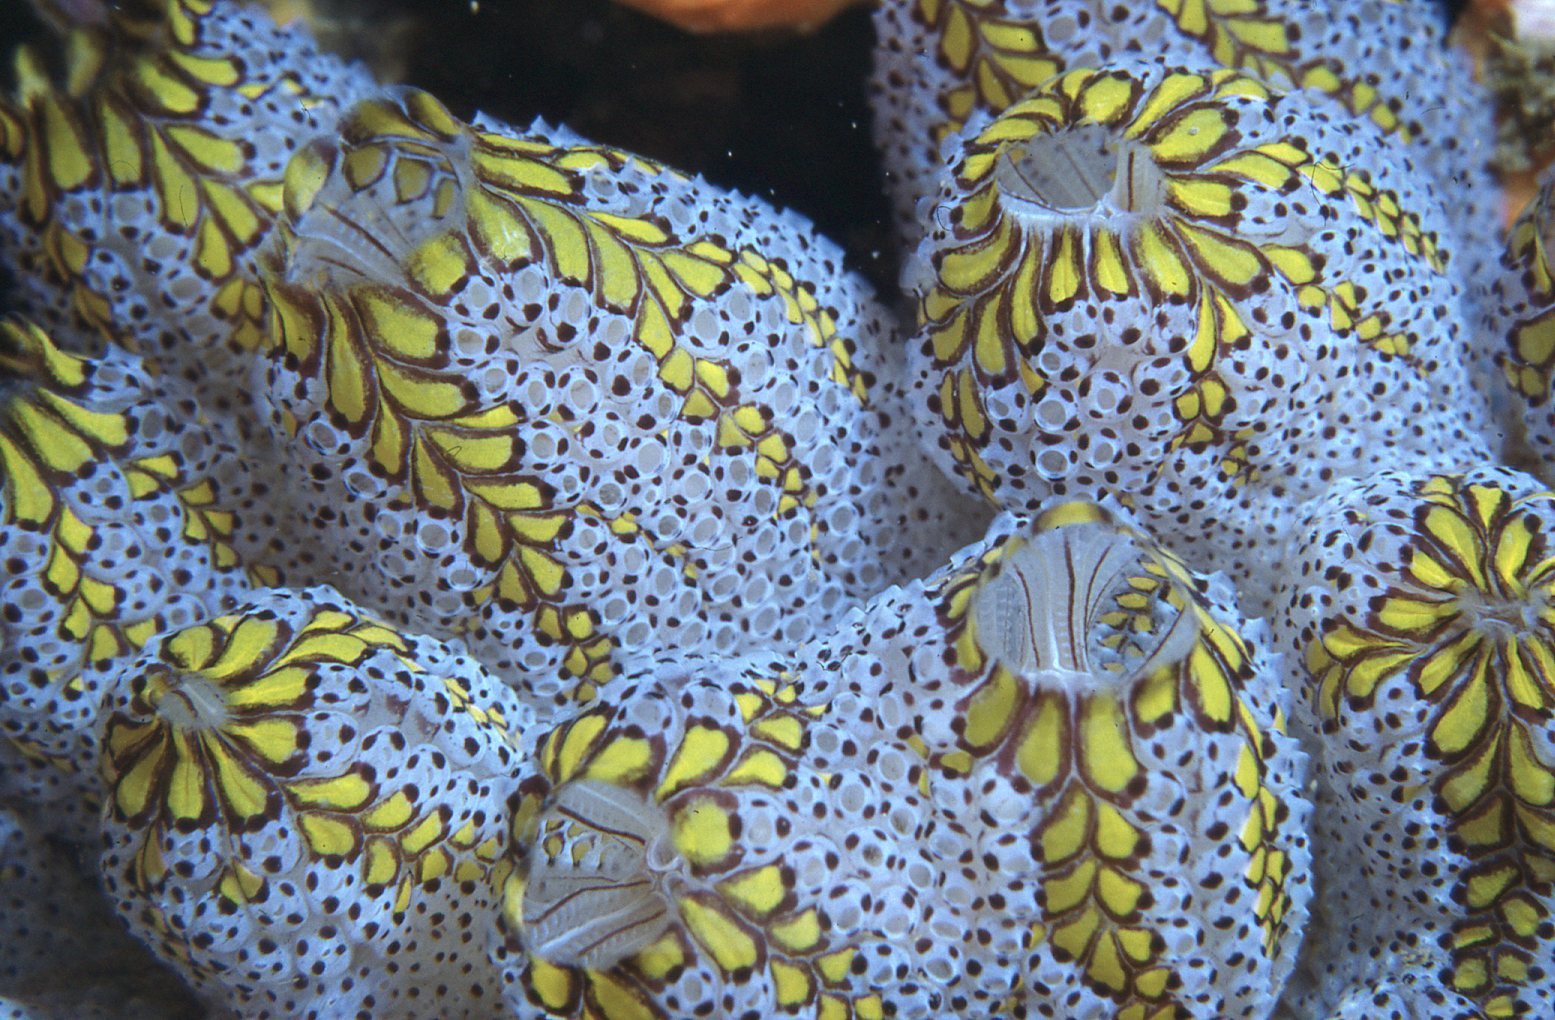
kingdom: Animalia
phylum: Chordata
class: Ascidiacea
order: Stolidobranchia
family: Styelidae
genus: Botrylloides
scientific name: Botrylloides magnicoecus
